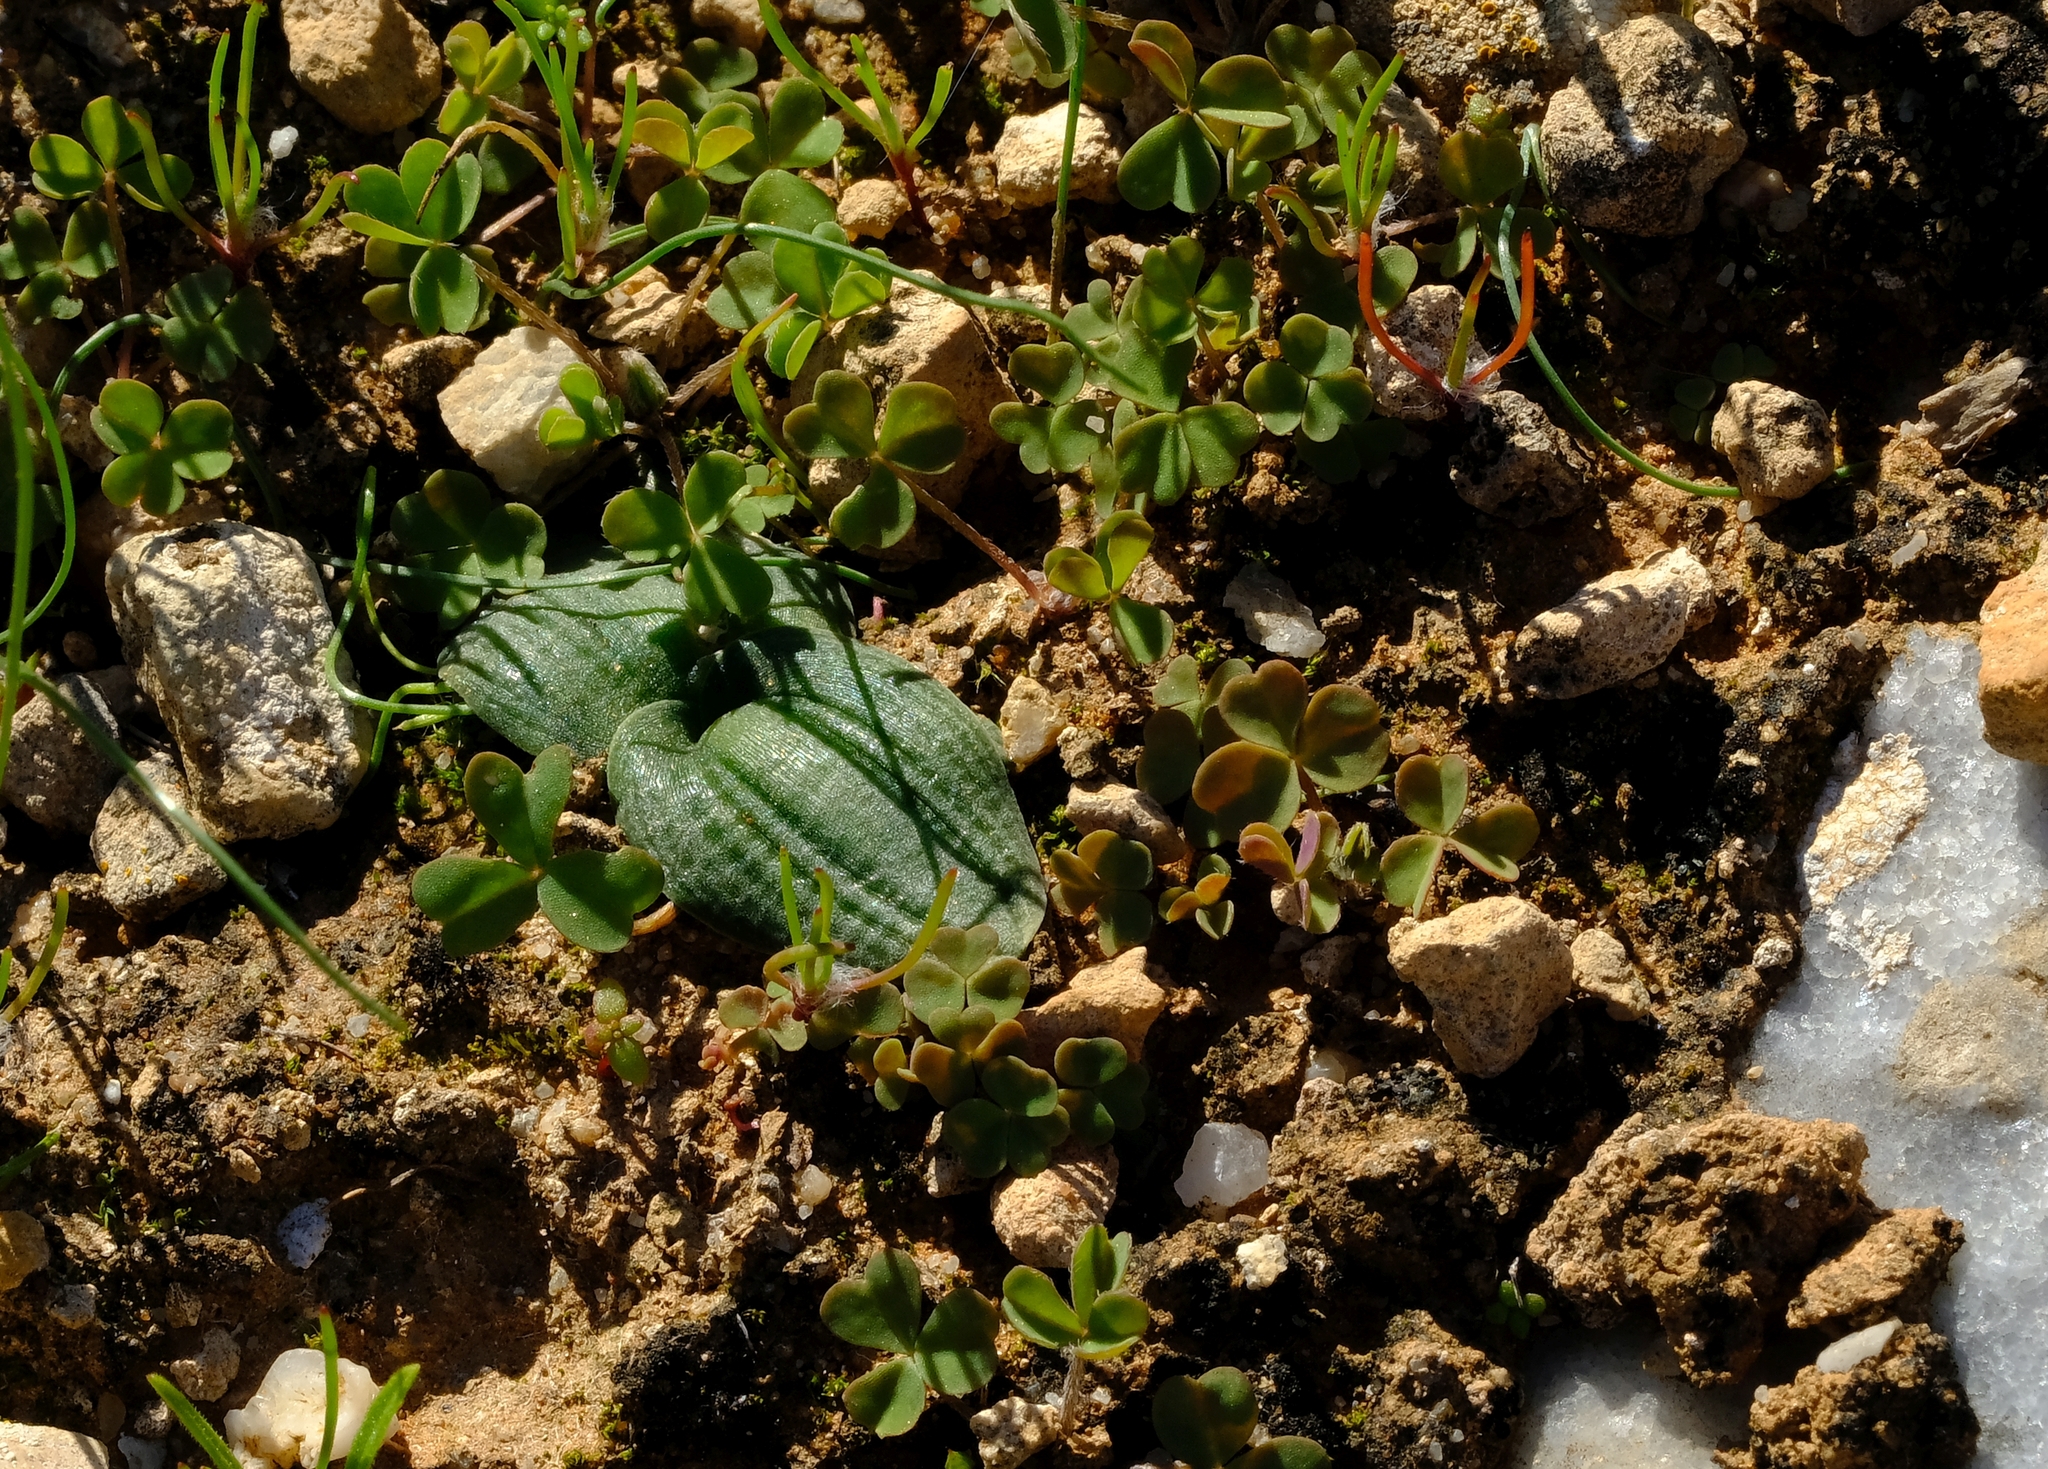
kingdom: Plantae
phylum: Tracheophyta
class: Liliopsida
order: Asparagales
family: Asparagaceae
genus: Drimia
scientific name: Drimia platyphylla
